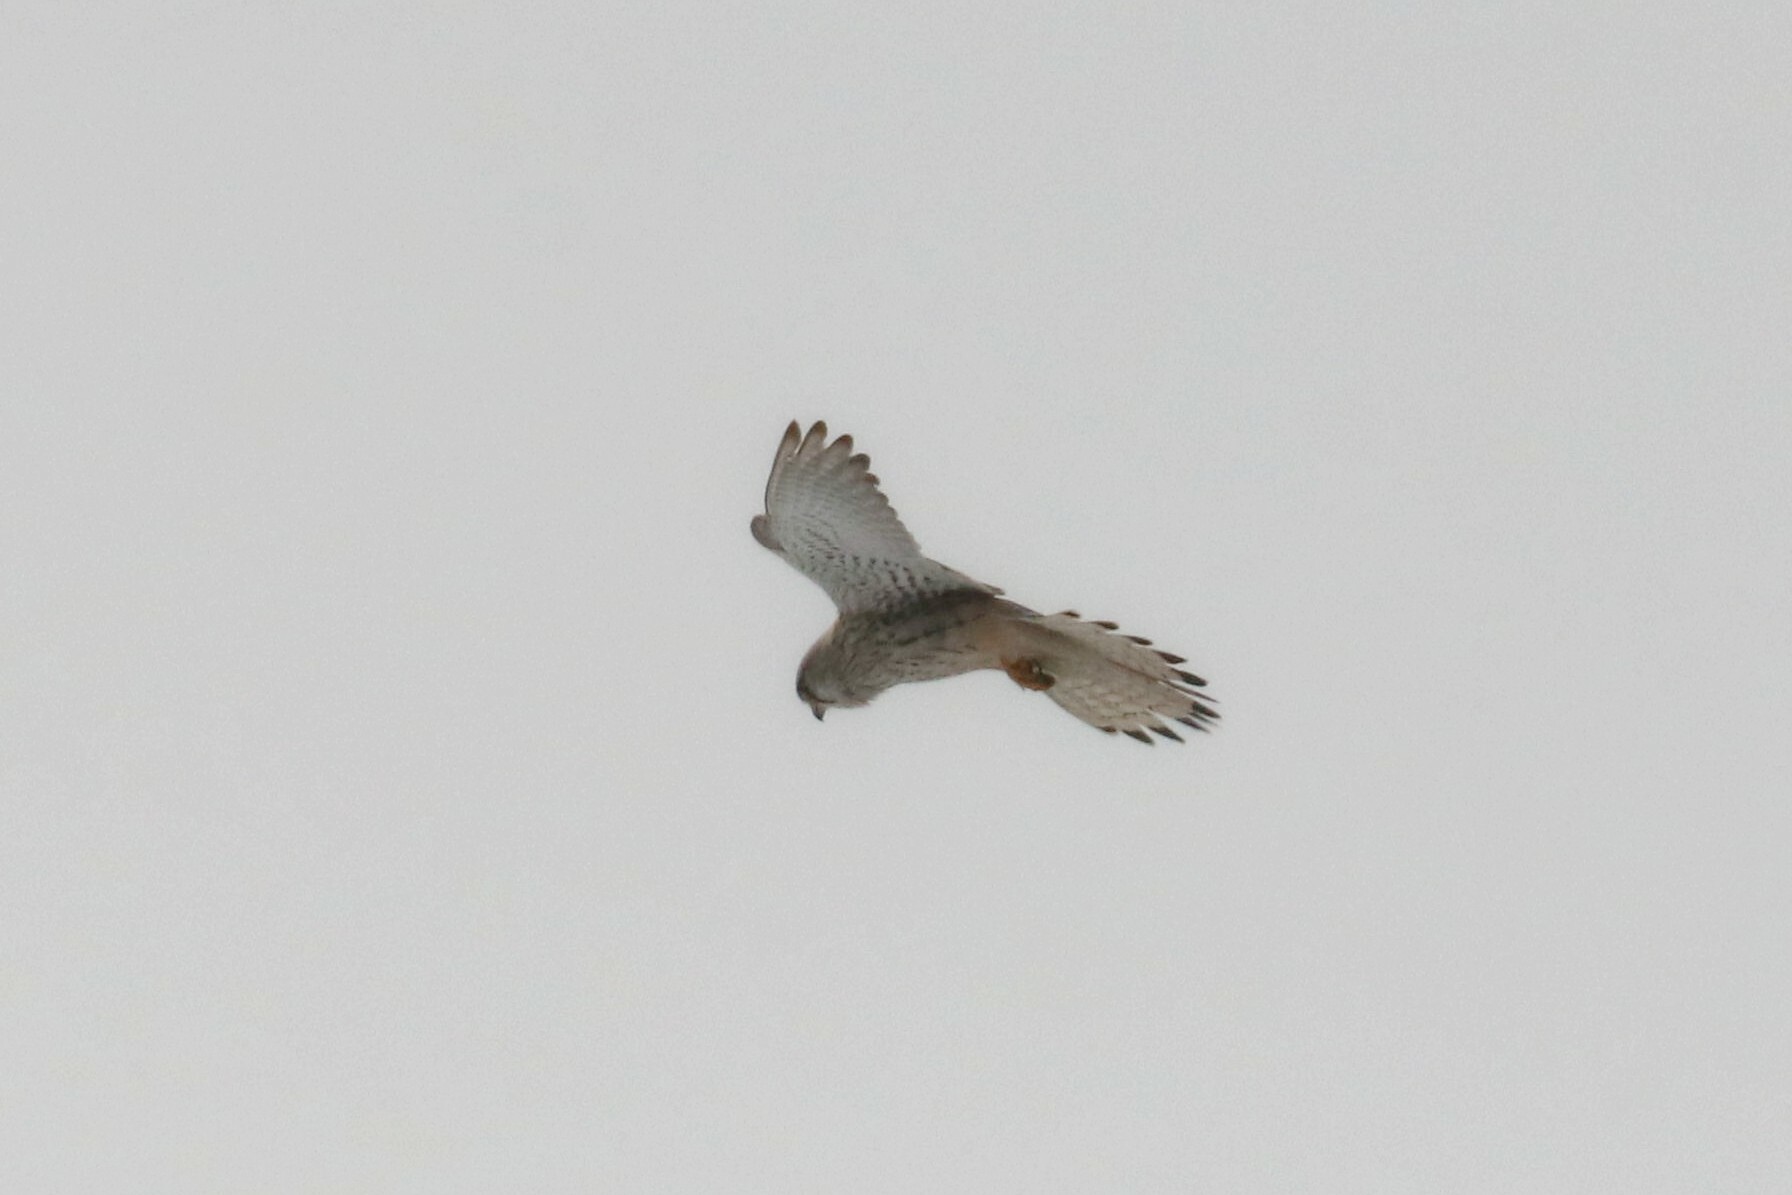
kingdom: Animalia
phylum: Chordata
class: Aves
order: Falconiformes
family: Falconidae
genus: Falco
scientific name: Falco tinnunculus
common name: Common kestrel
